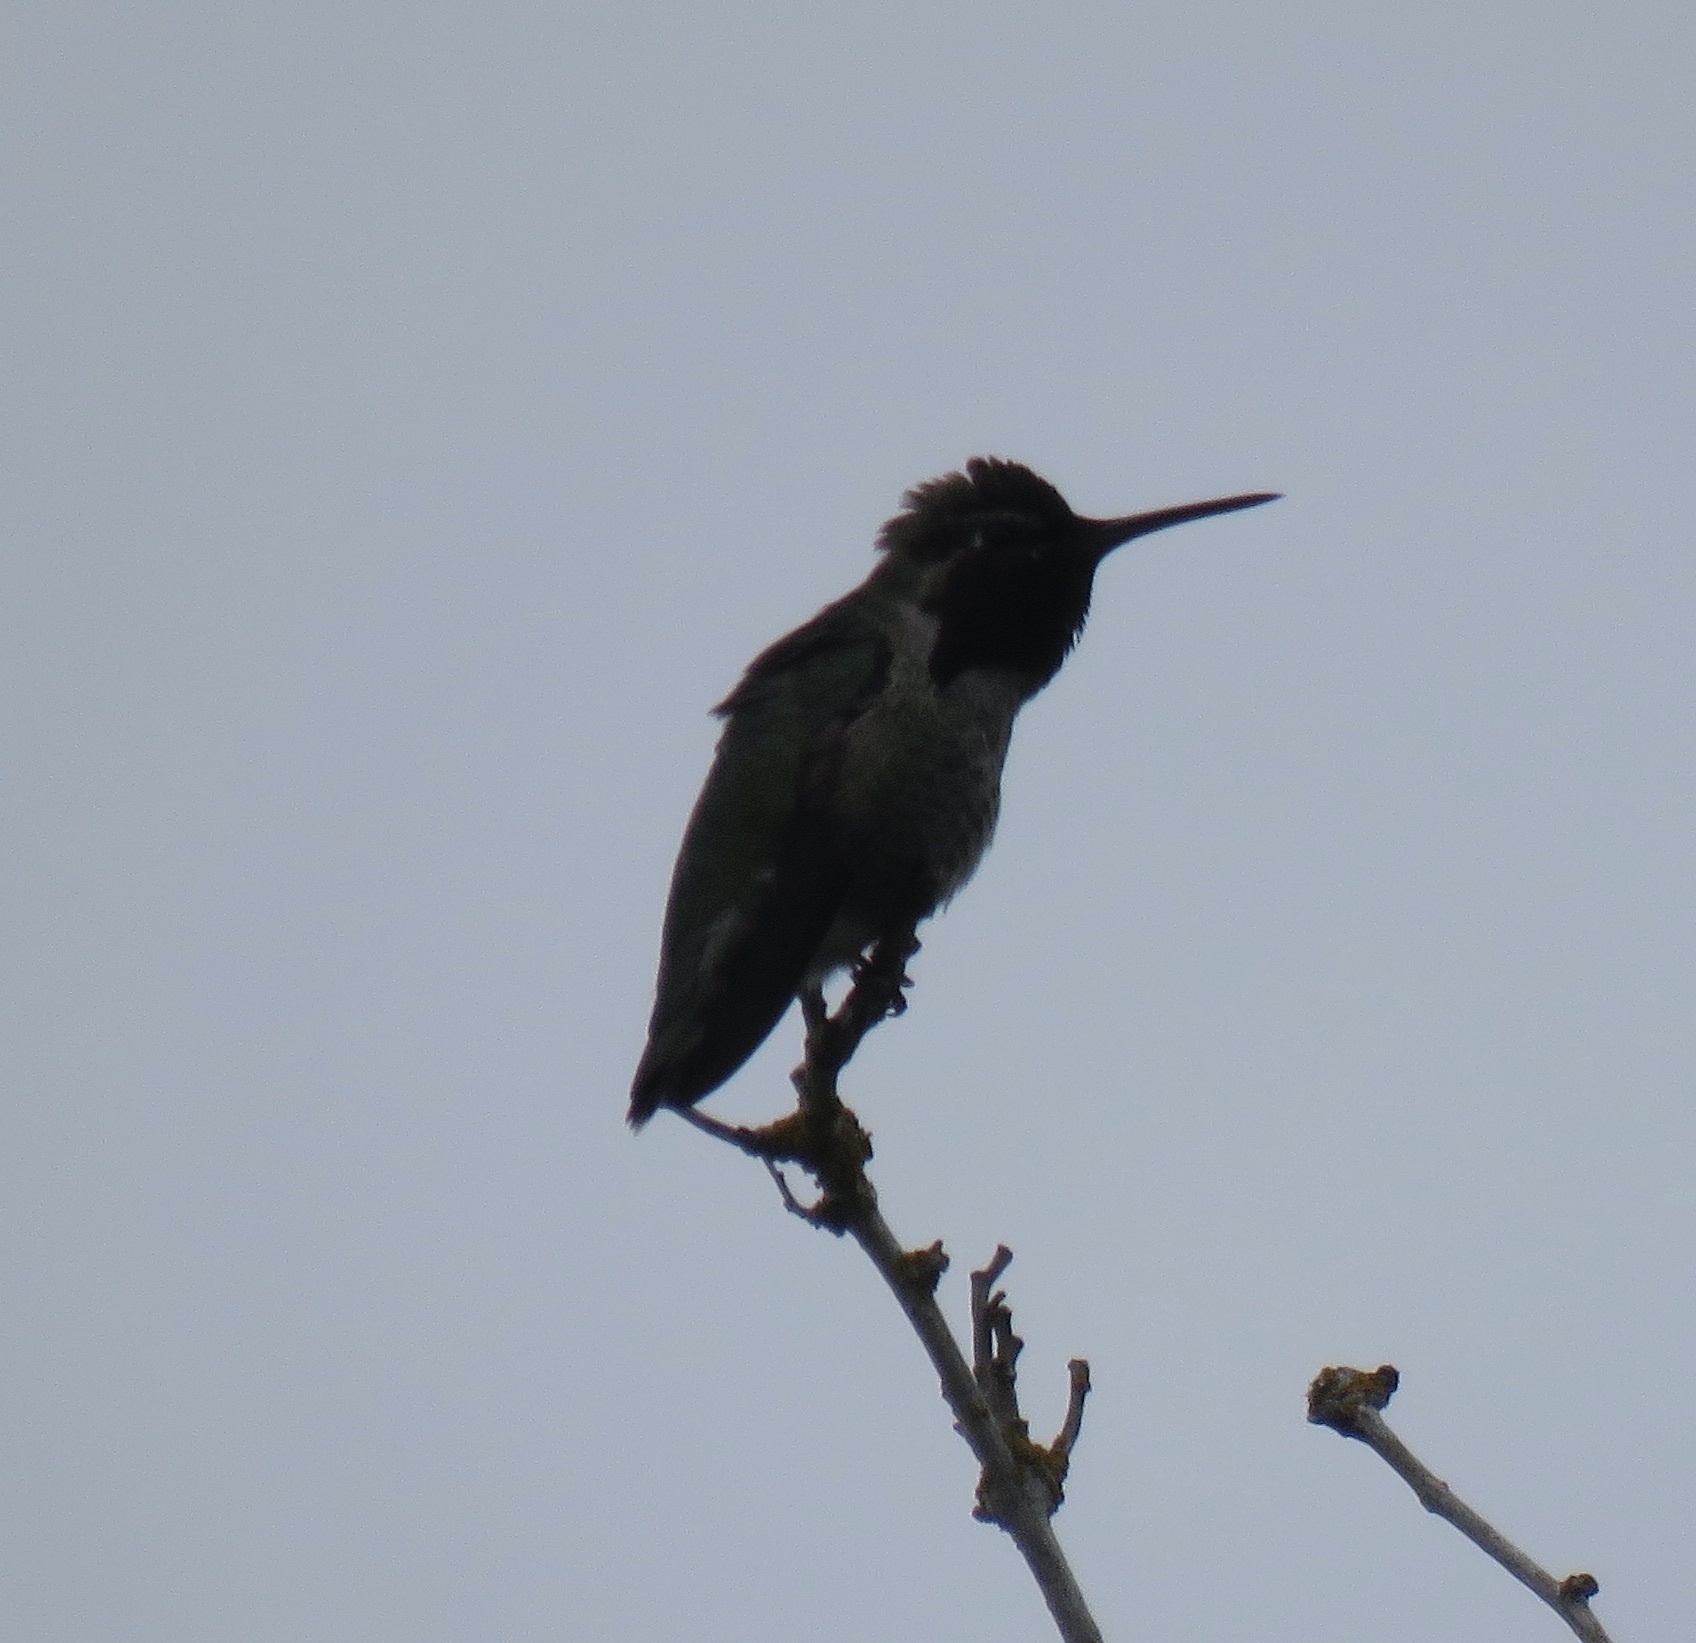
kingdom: Animalia
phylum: Chordata
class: Aves
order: Apodiformes
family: Trochilidae
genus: Calypte
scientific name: Calypte anna
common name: Anna's hummingbird
